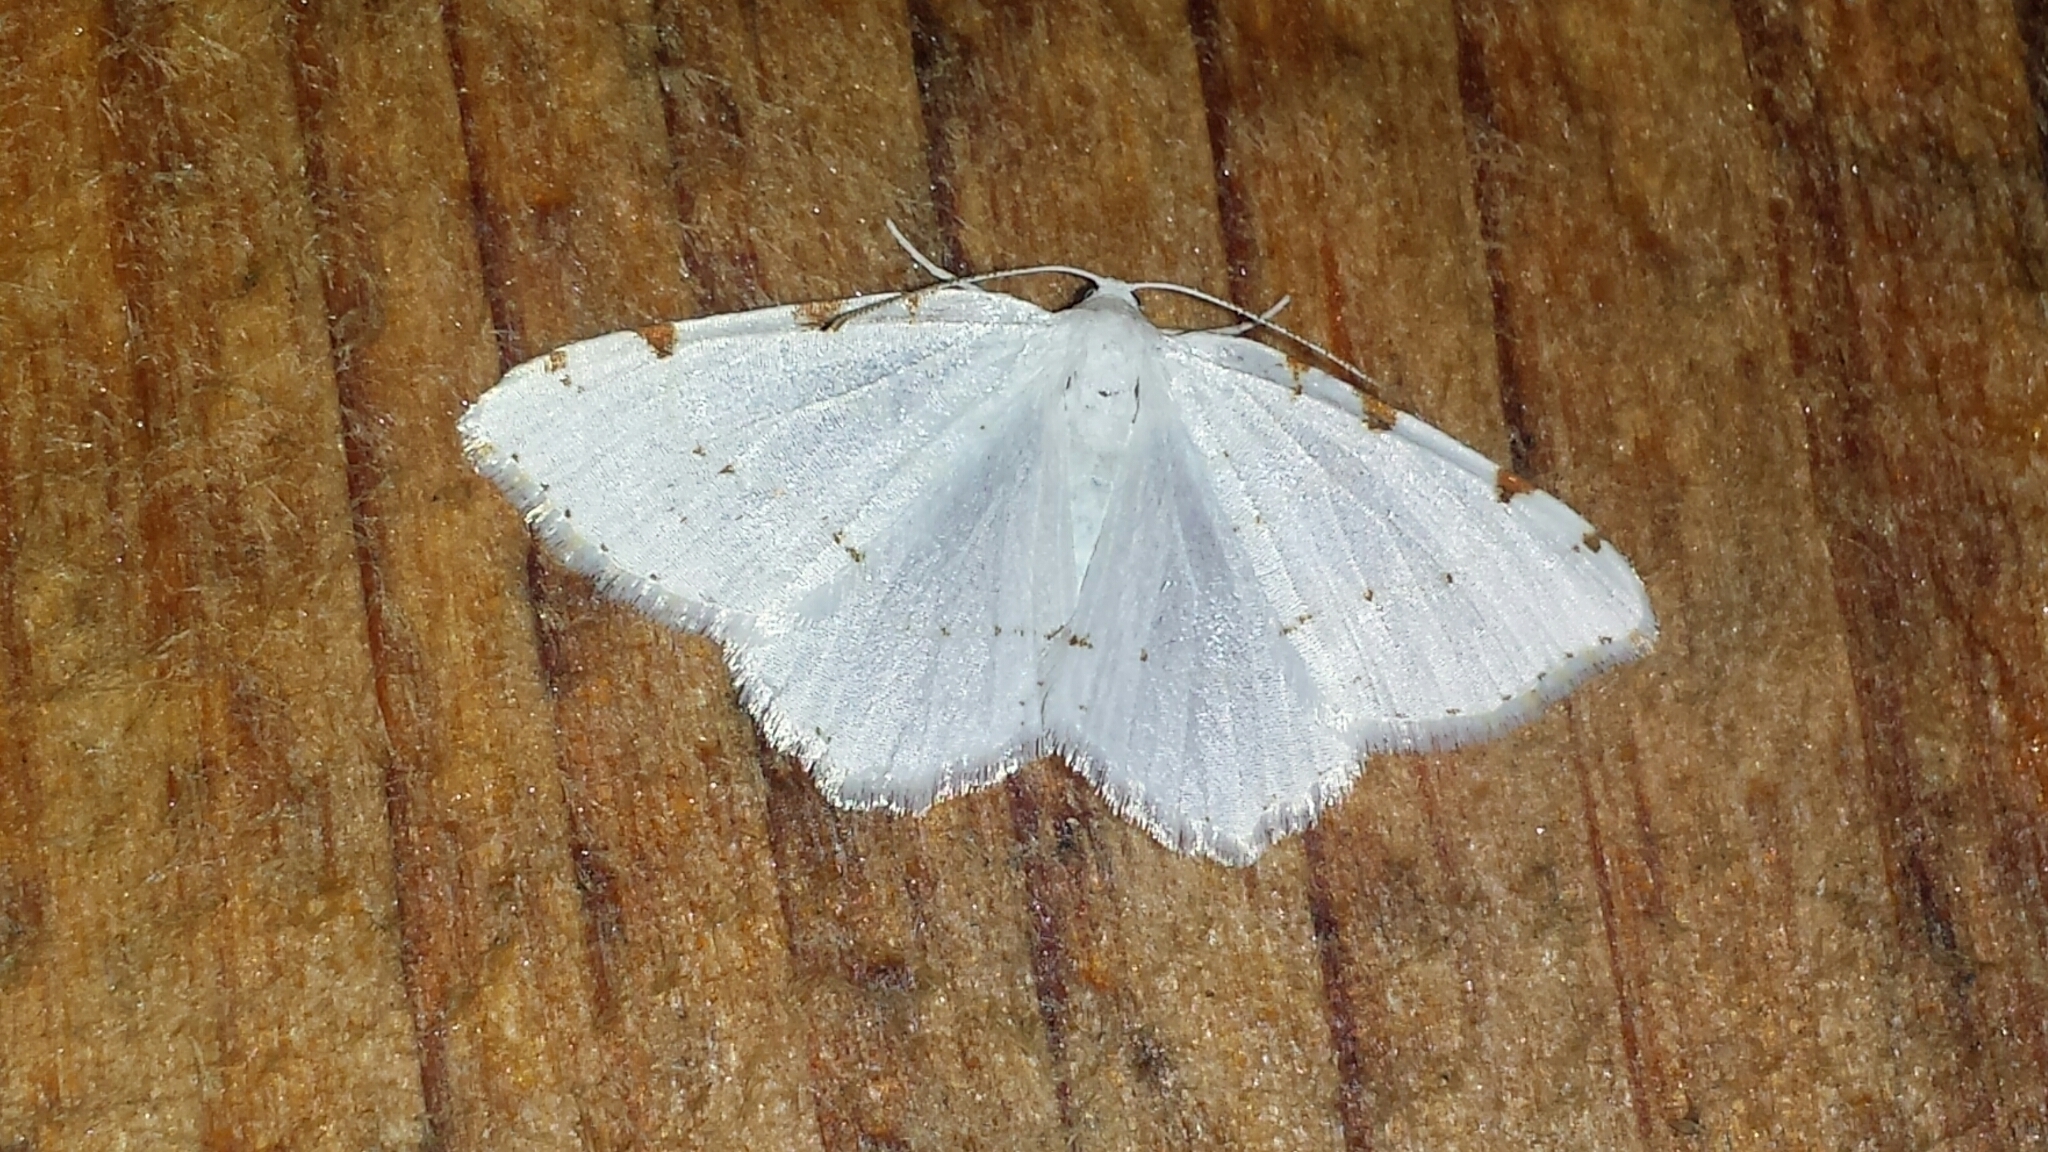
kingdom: Animalia
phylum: Arthropoda
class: Insecta
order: Lepidoptera
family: Geometridae
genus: Macaria
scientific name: Macaria pustularia
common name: Lesser maple spanworm moth
